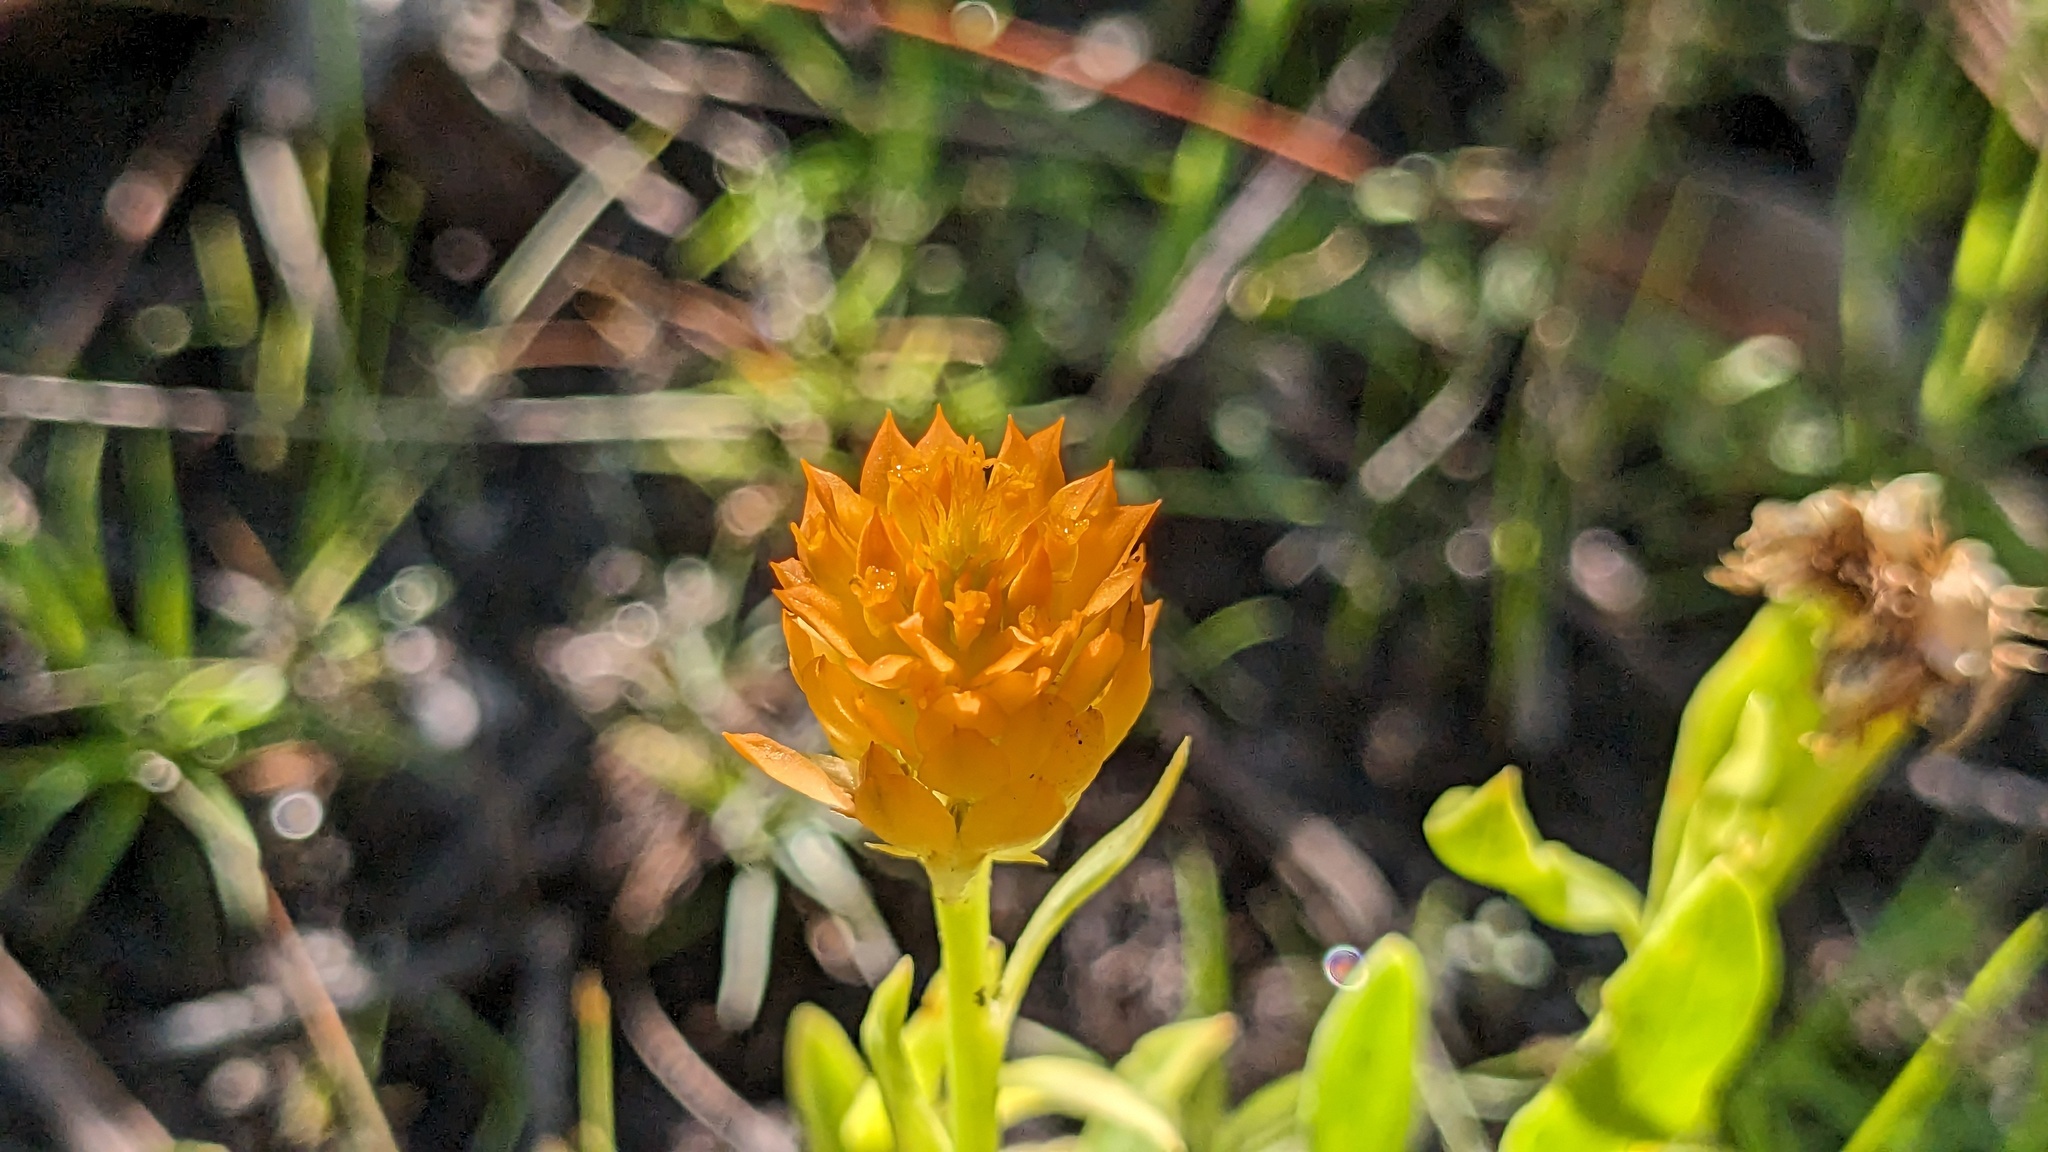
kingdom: Plantae
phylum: Tracheophyta
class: Magnoliopsida
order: Fabales
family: Polygalaceae
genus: Polygala
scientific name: Polygala lutea
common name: Orange milkwort
